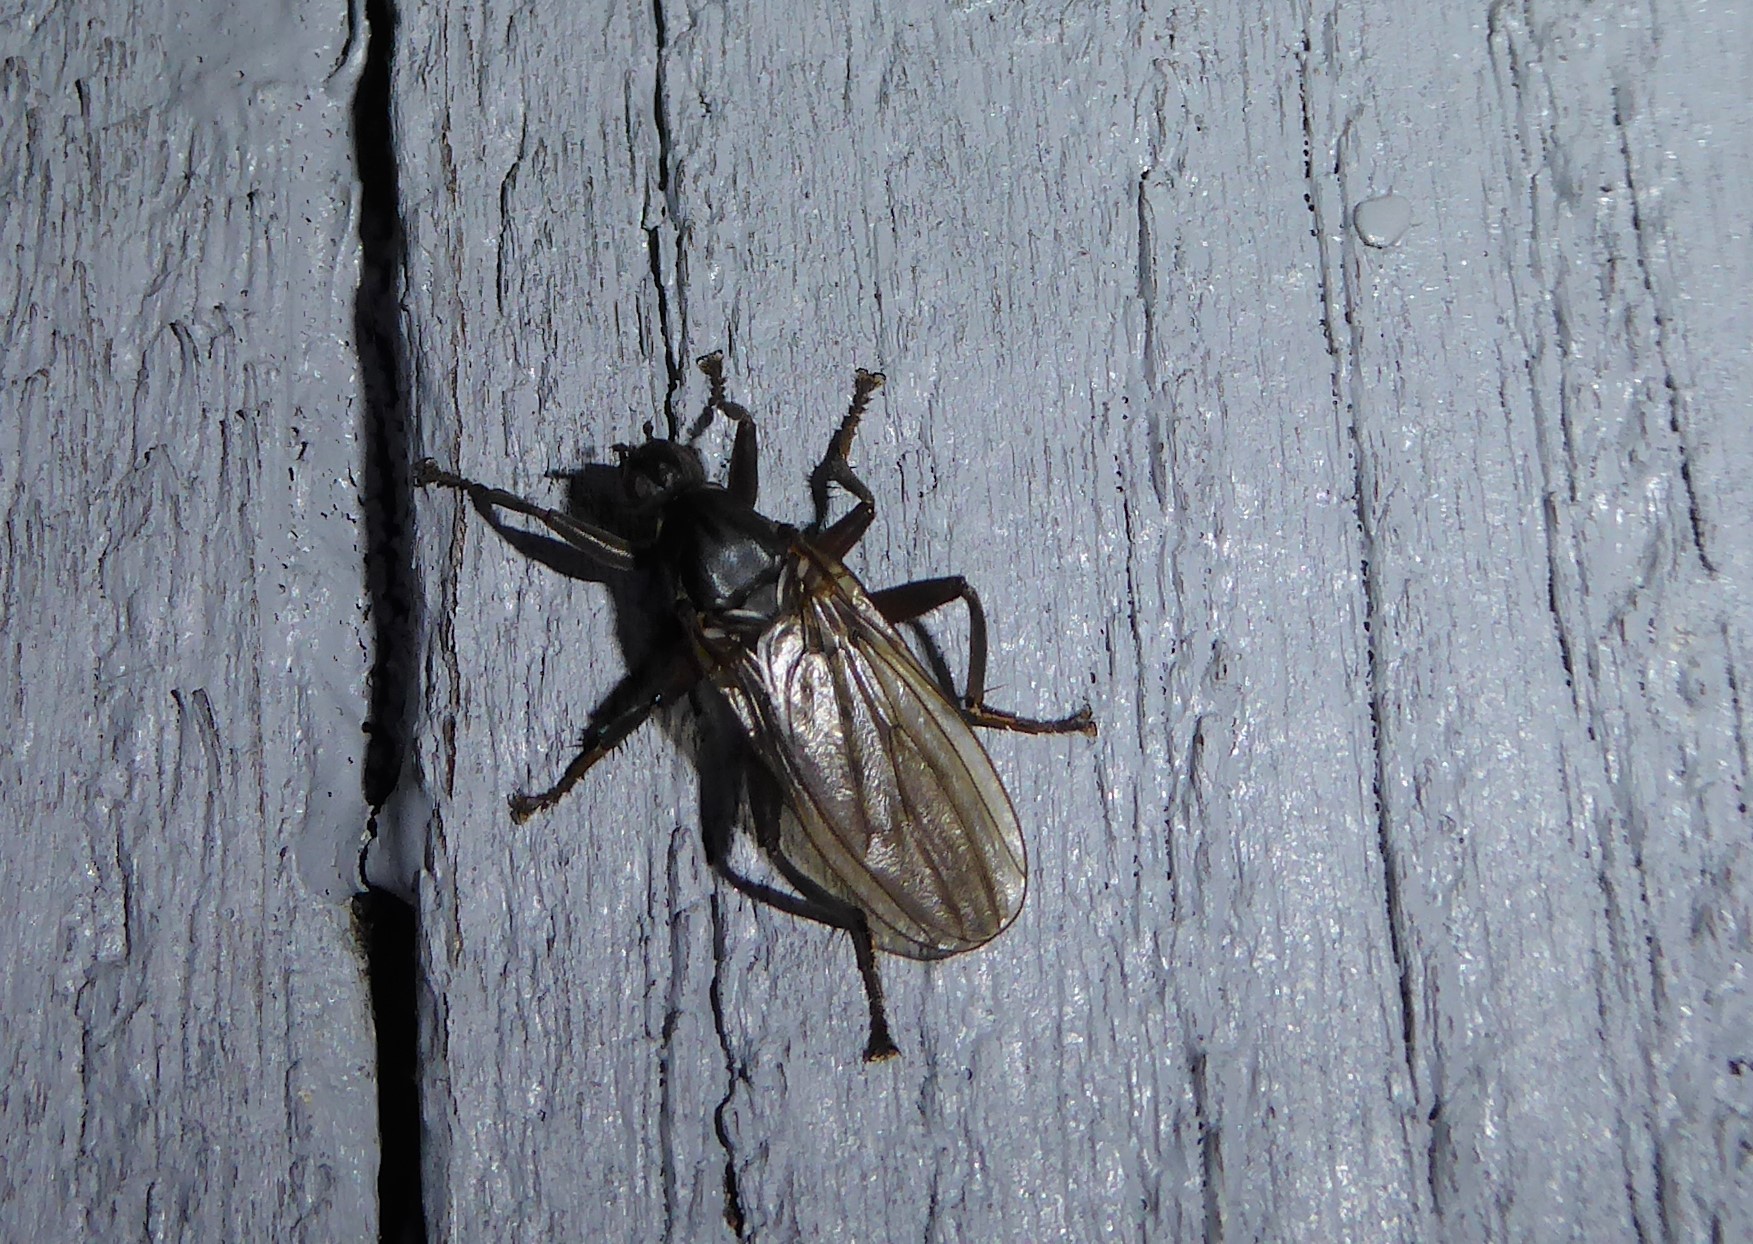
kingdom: Animalia
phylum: Arthropoda
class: Insecta
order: Diptera
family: Coelopidae
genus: Baeopterus
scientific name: Baeopterus philpotti
